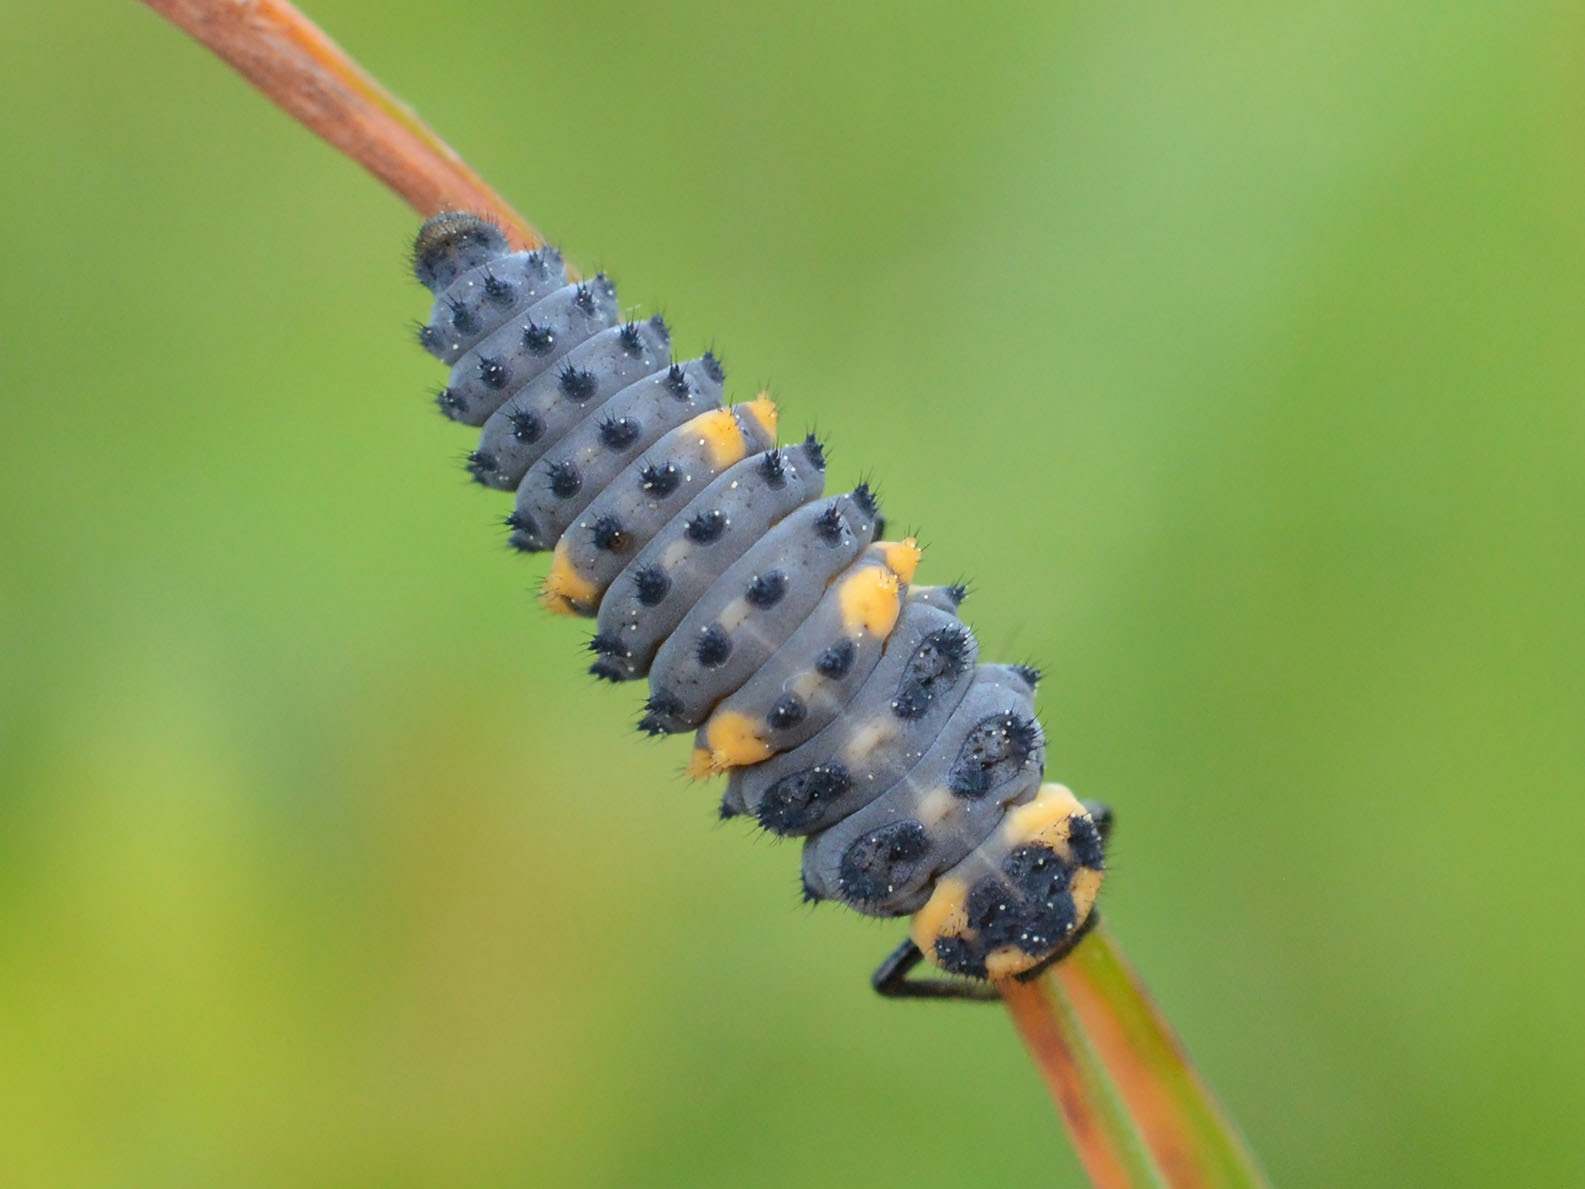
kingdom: Animalia
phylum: Arthropoda
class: Insecta
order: Coleoptera
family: Coccinellidae
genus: Coccinella
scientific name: Coccinella septempunctata
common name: Sevenspotted lady beetle
